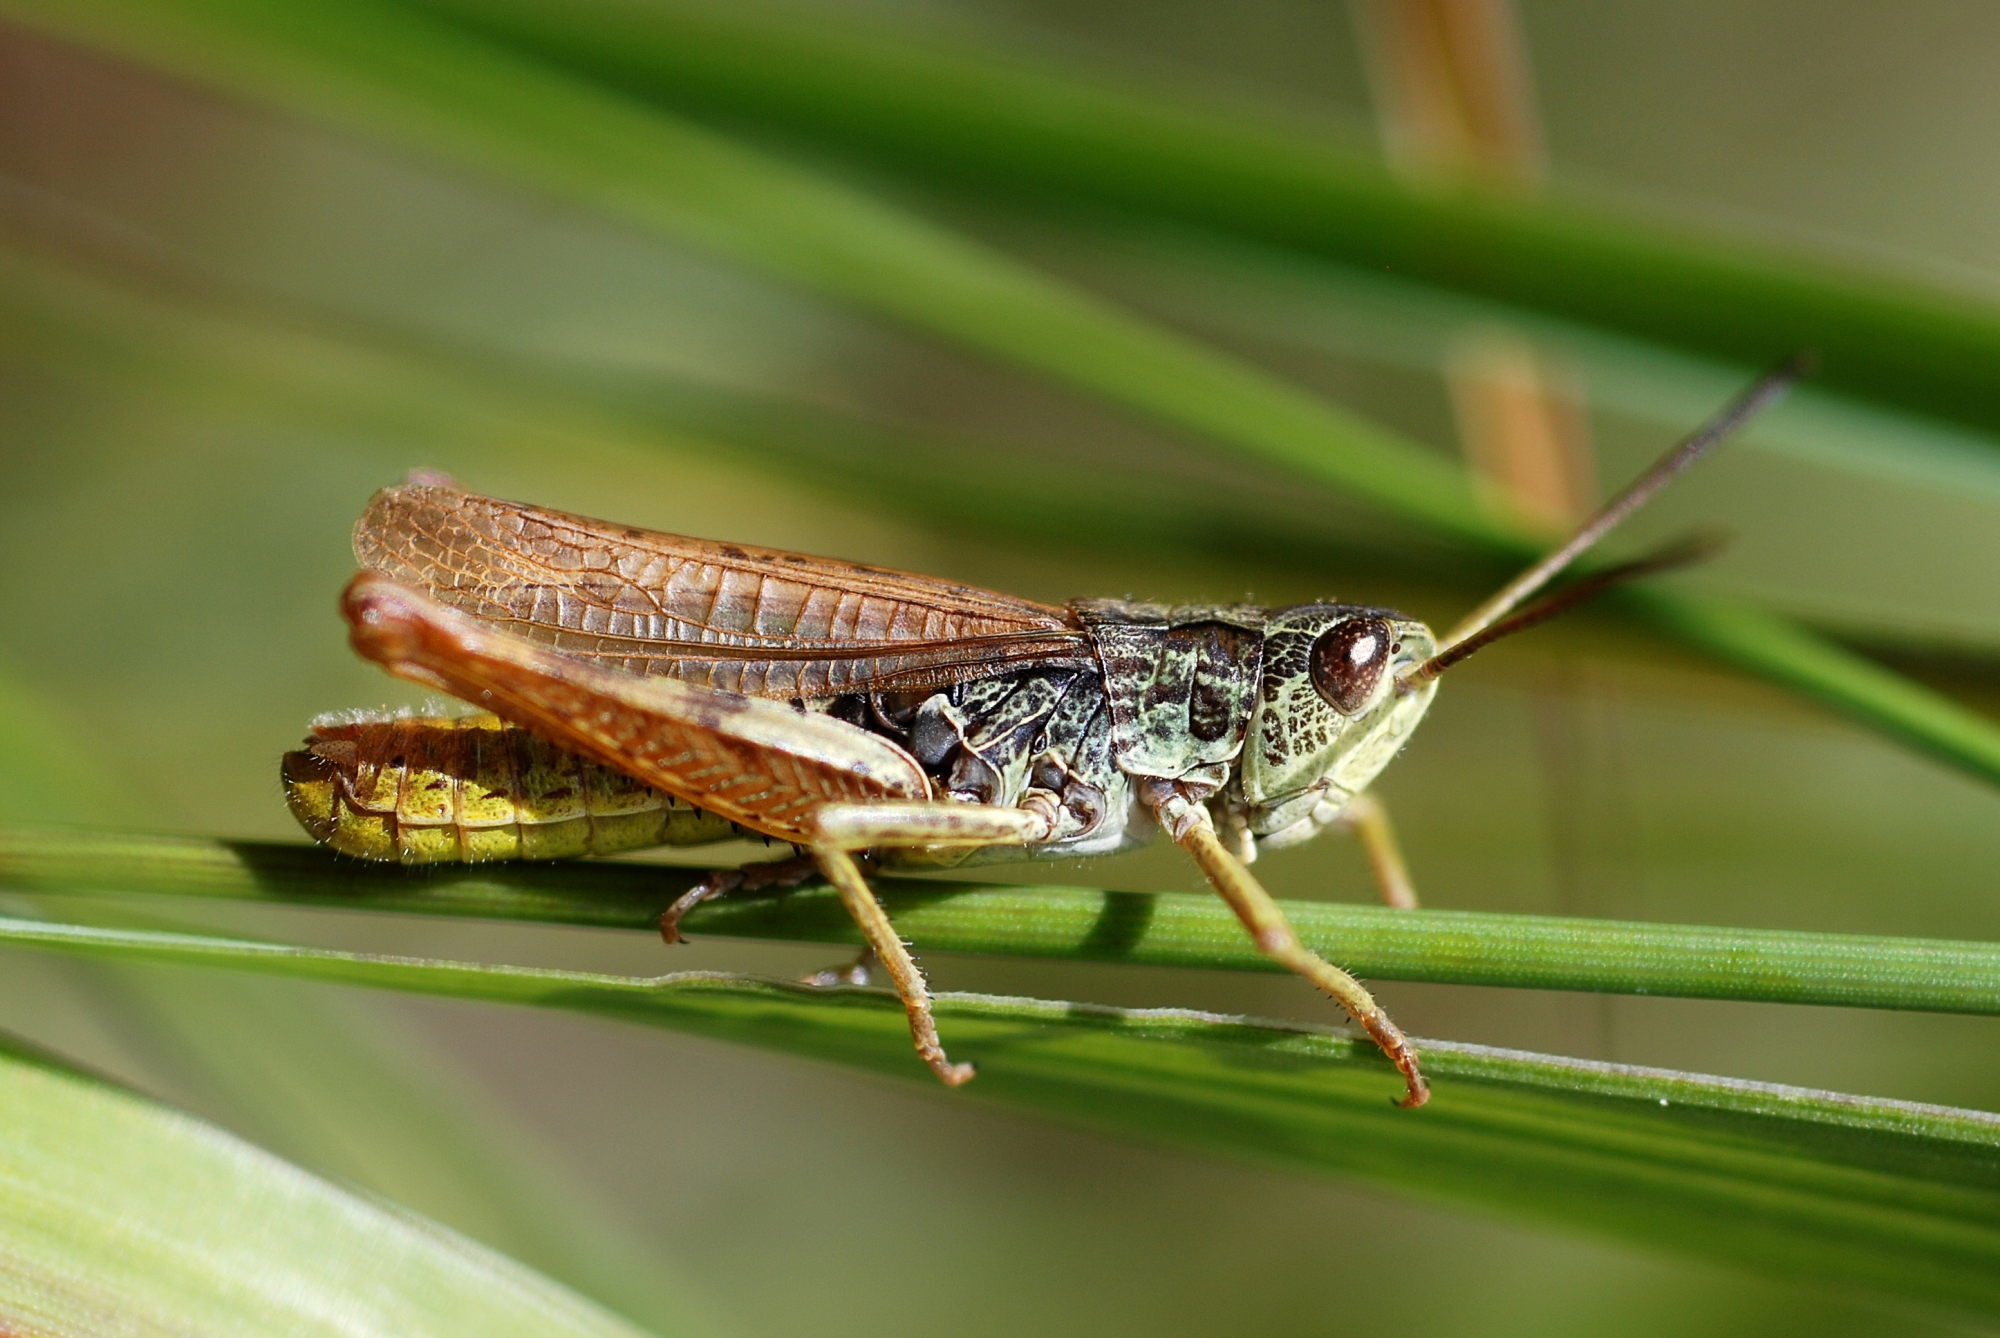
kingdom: Animalia
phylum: Arthropoda
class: Insecta
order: Orthoptera
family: Acrididae
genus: Chorthippus
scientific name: Chorthippus apricarius
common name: Upland field grasshopper
